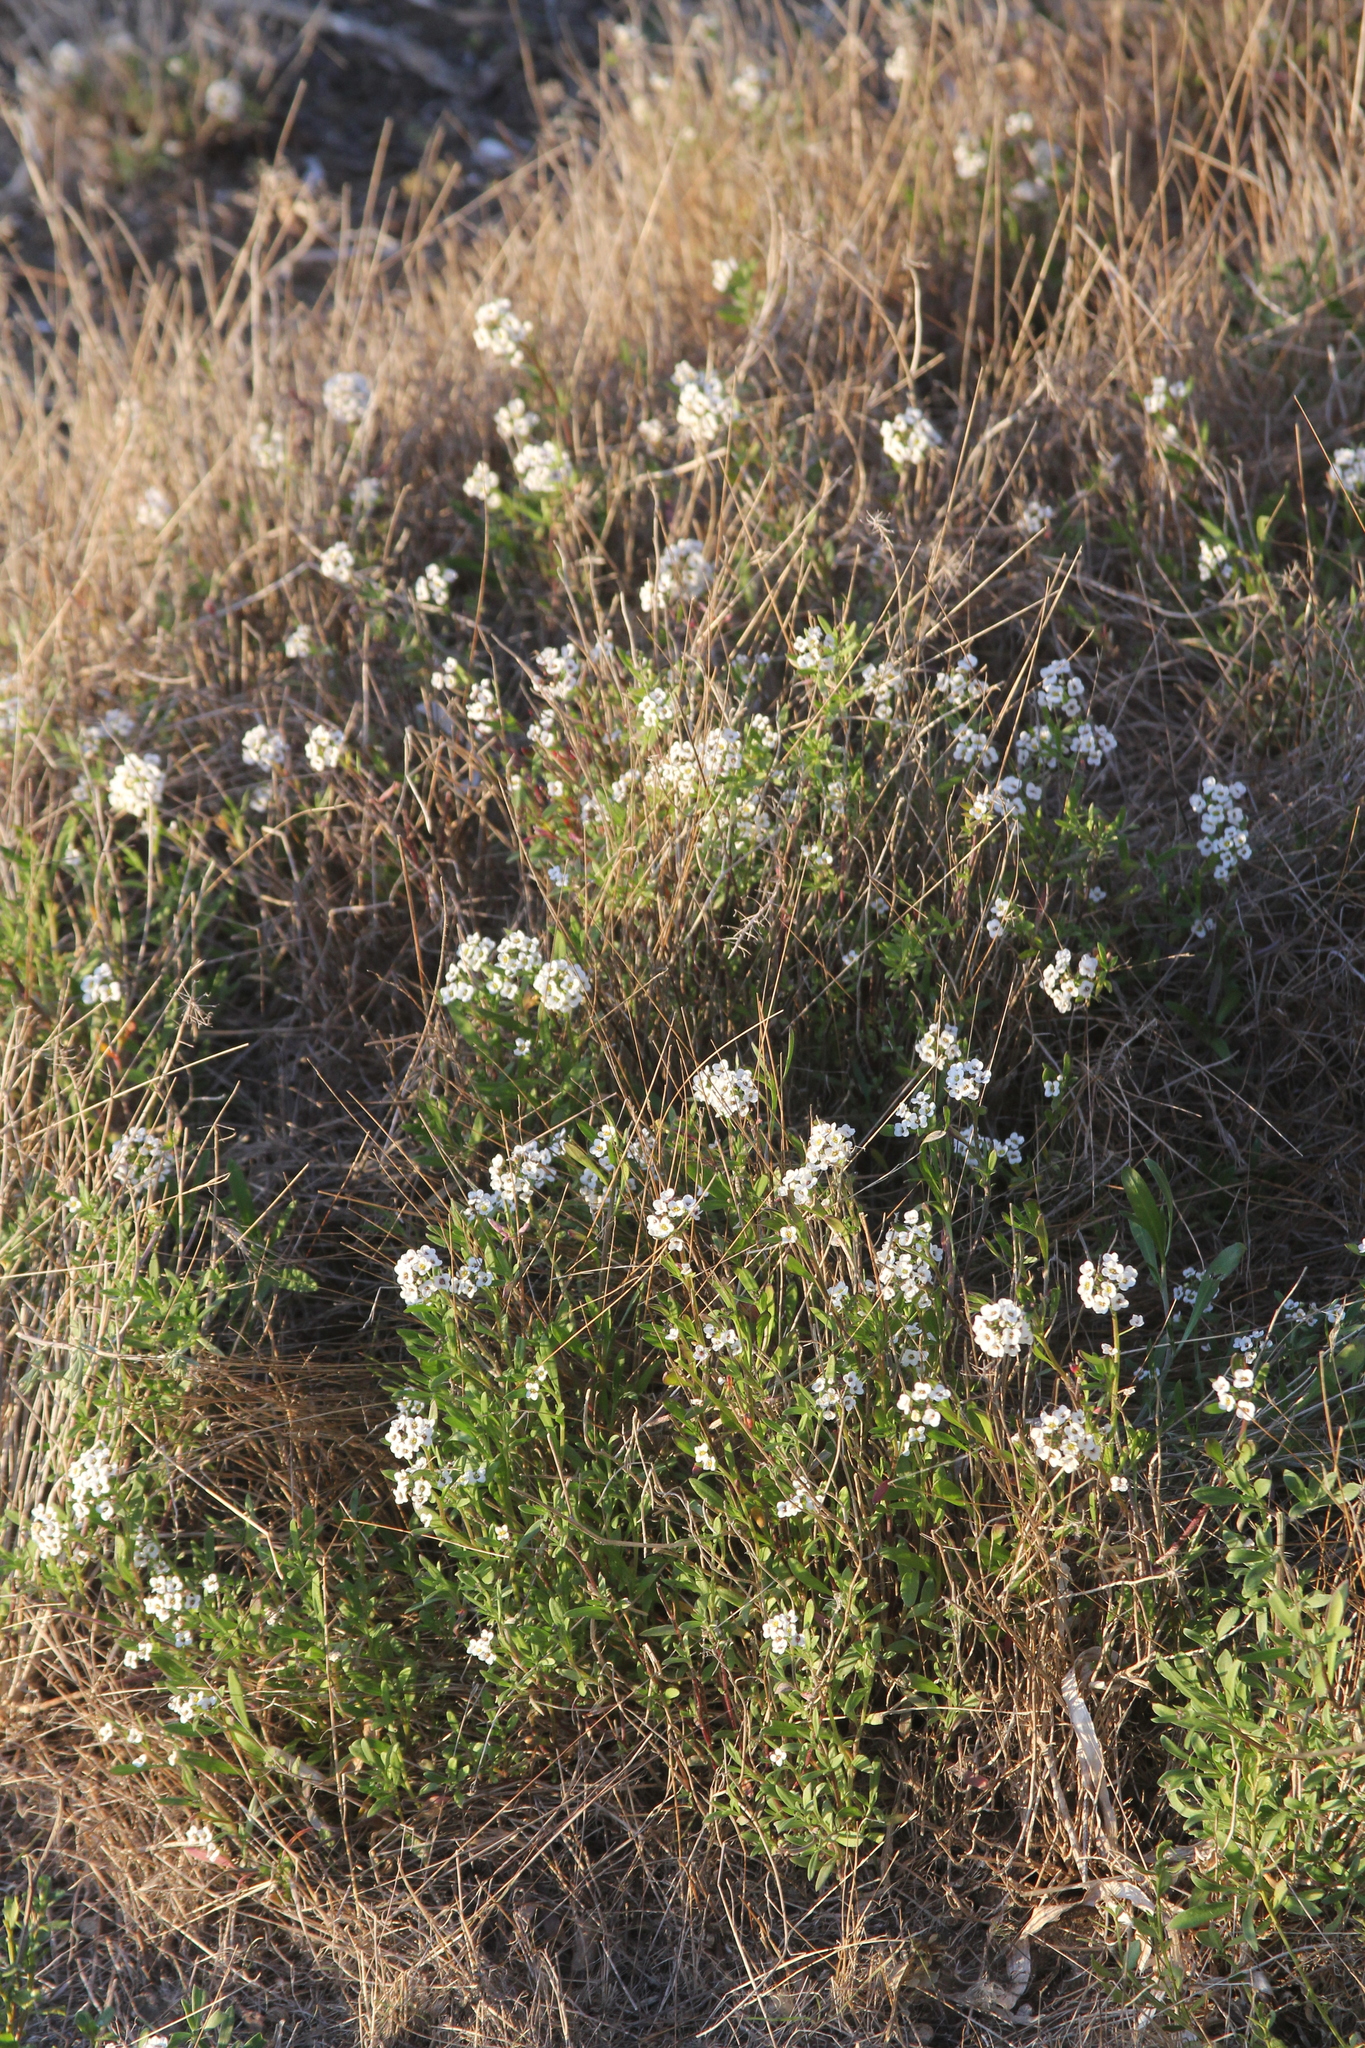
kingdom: Plantae
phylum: Tracheophyta
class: Magnoliopsida
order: Brassicales
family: Brassicaceae
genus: Lobularia
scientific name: Lobularia maritima
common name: Sweet alison
